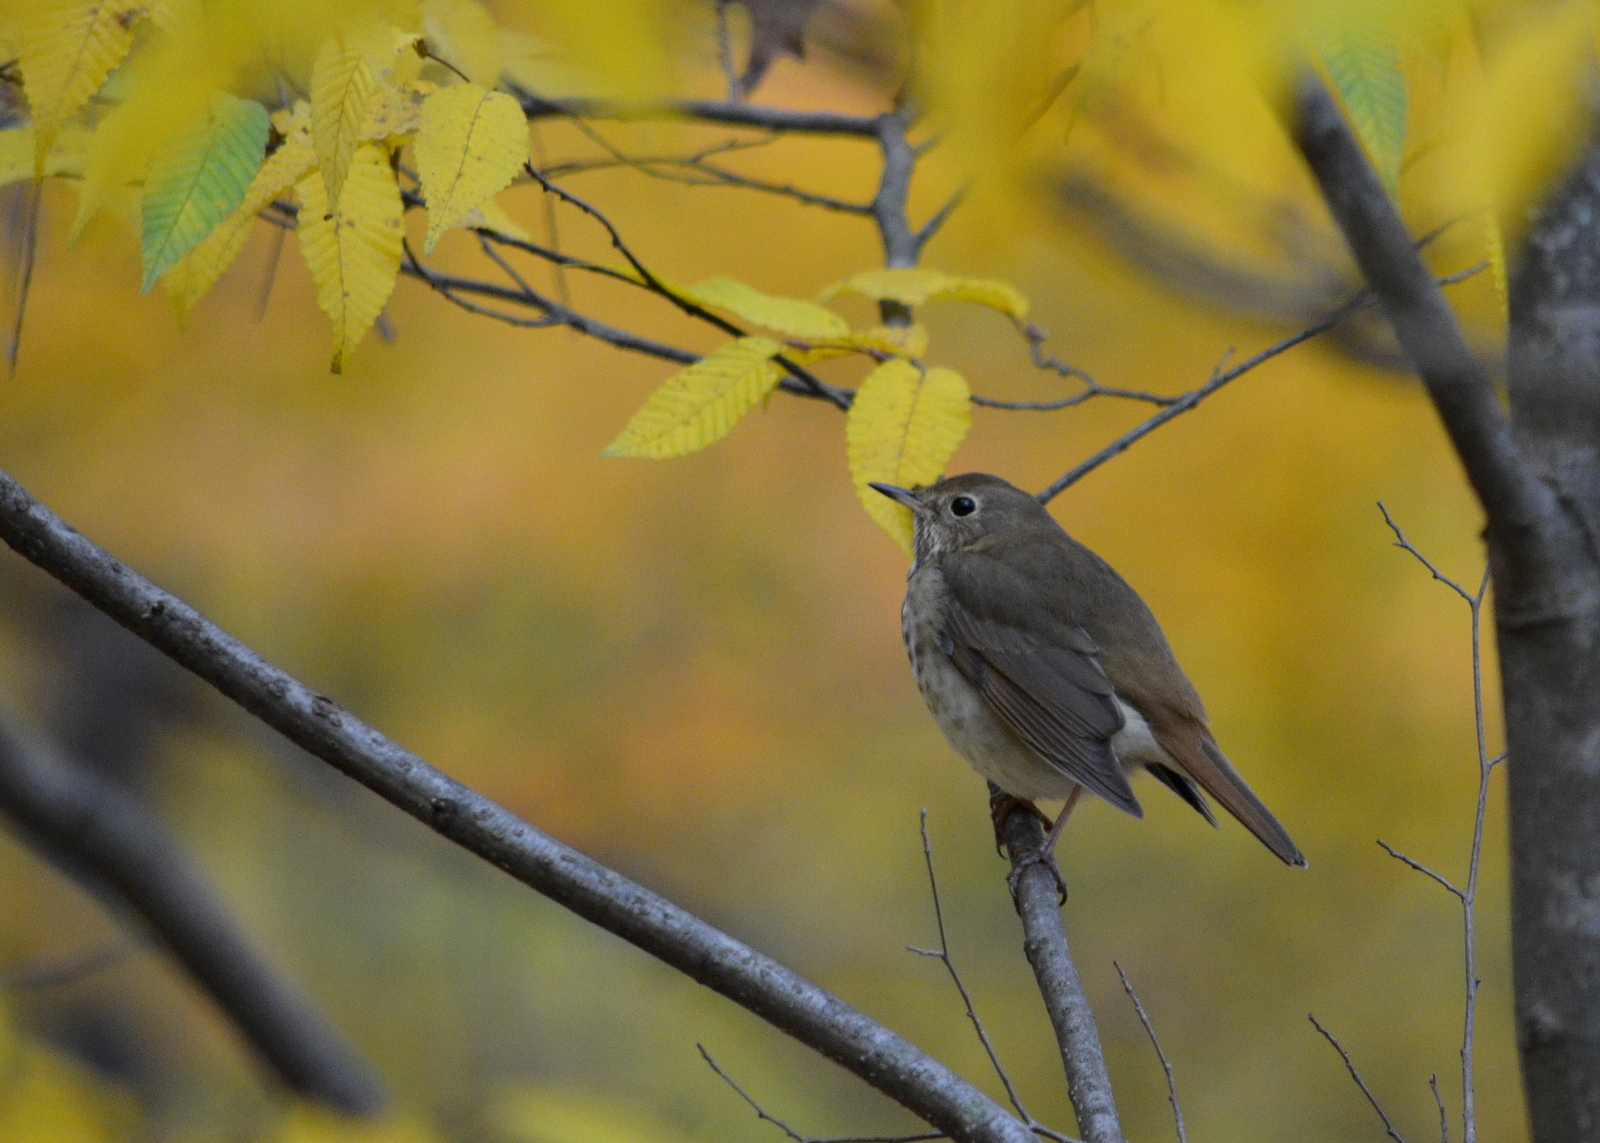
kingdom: Animalia
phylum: Chordata
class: Aves
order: Passeriformes
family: Turdidae
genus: Catharus
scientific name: Catharus guttatus
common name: Hermit thrush
